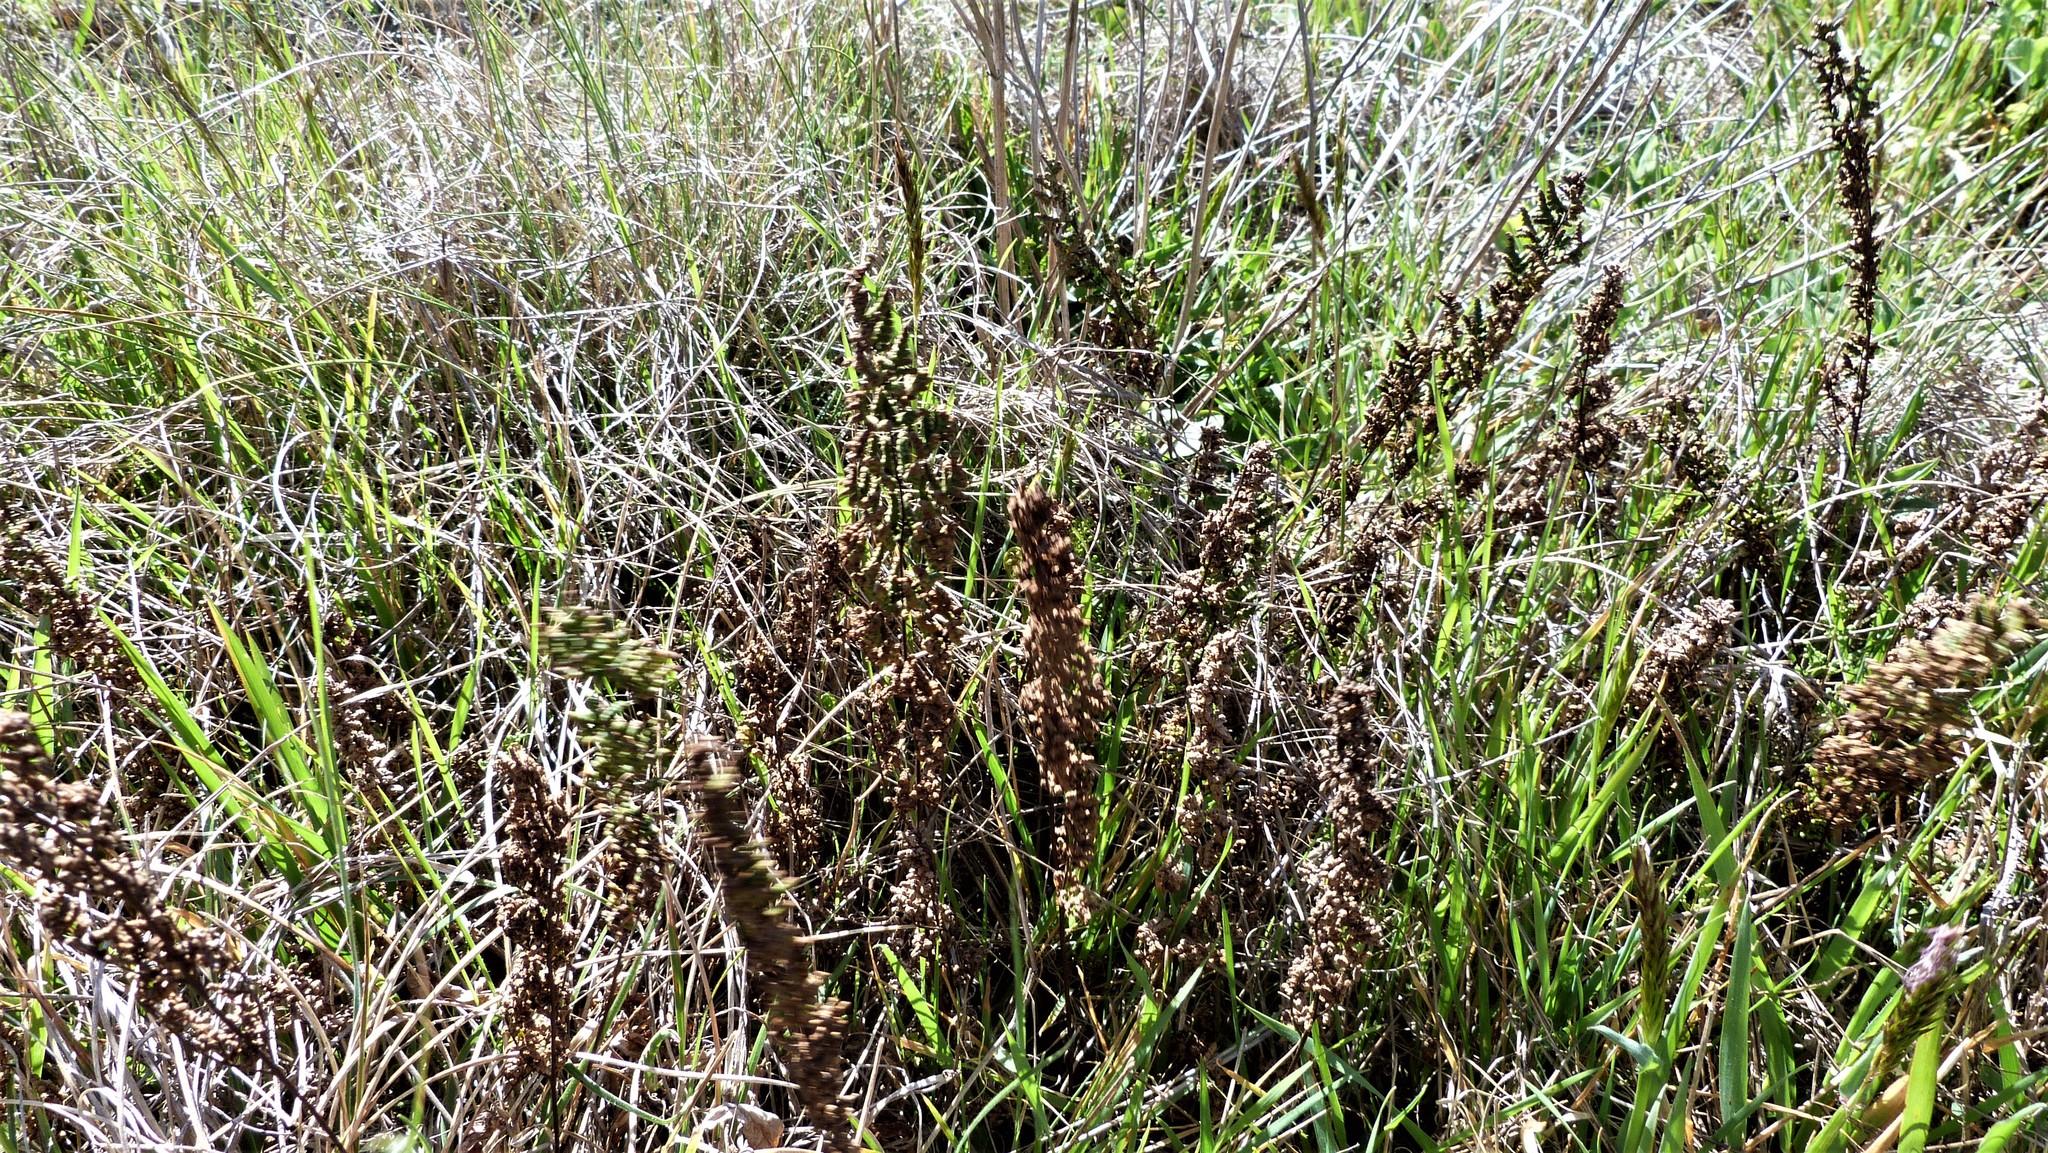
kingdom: Plantae
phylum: Tracheophyta
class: Polypodiopsida
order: Polypodiales
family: Pteridaceae
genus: Cheilanthes
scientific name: Cheilanthes sieberi
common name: Mulga fern
